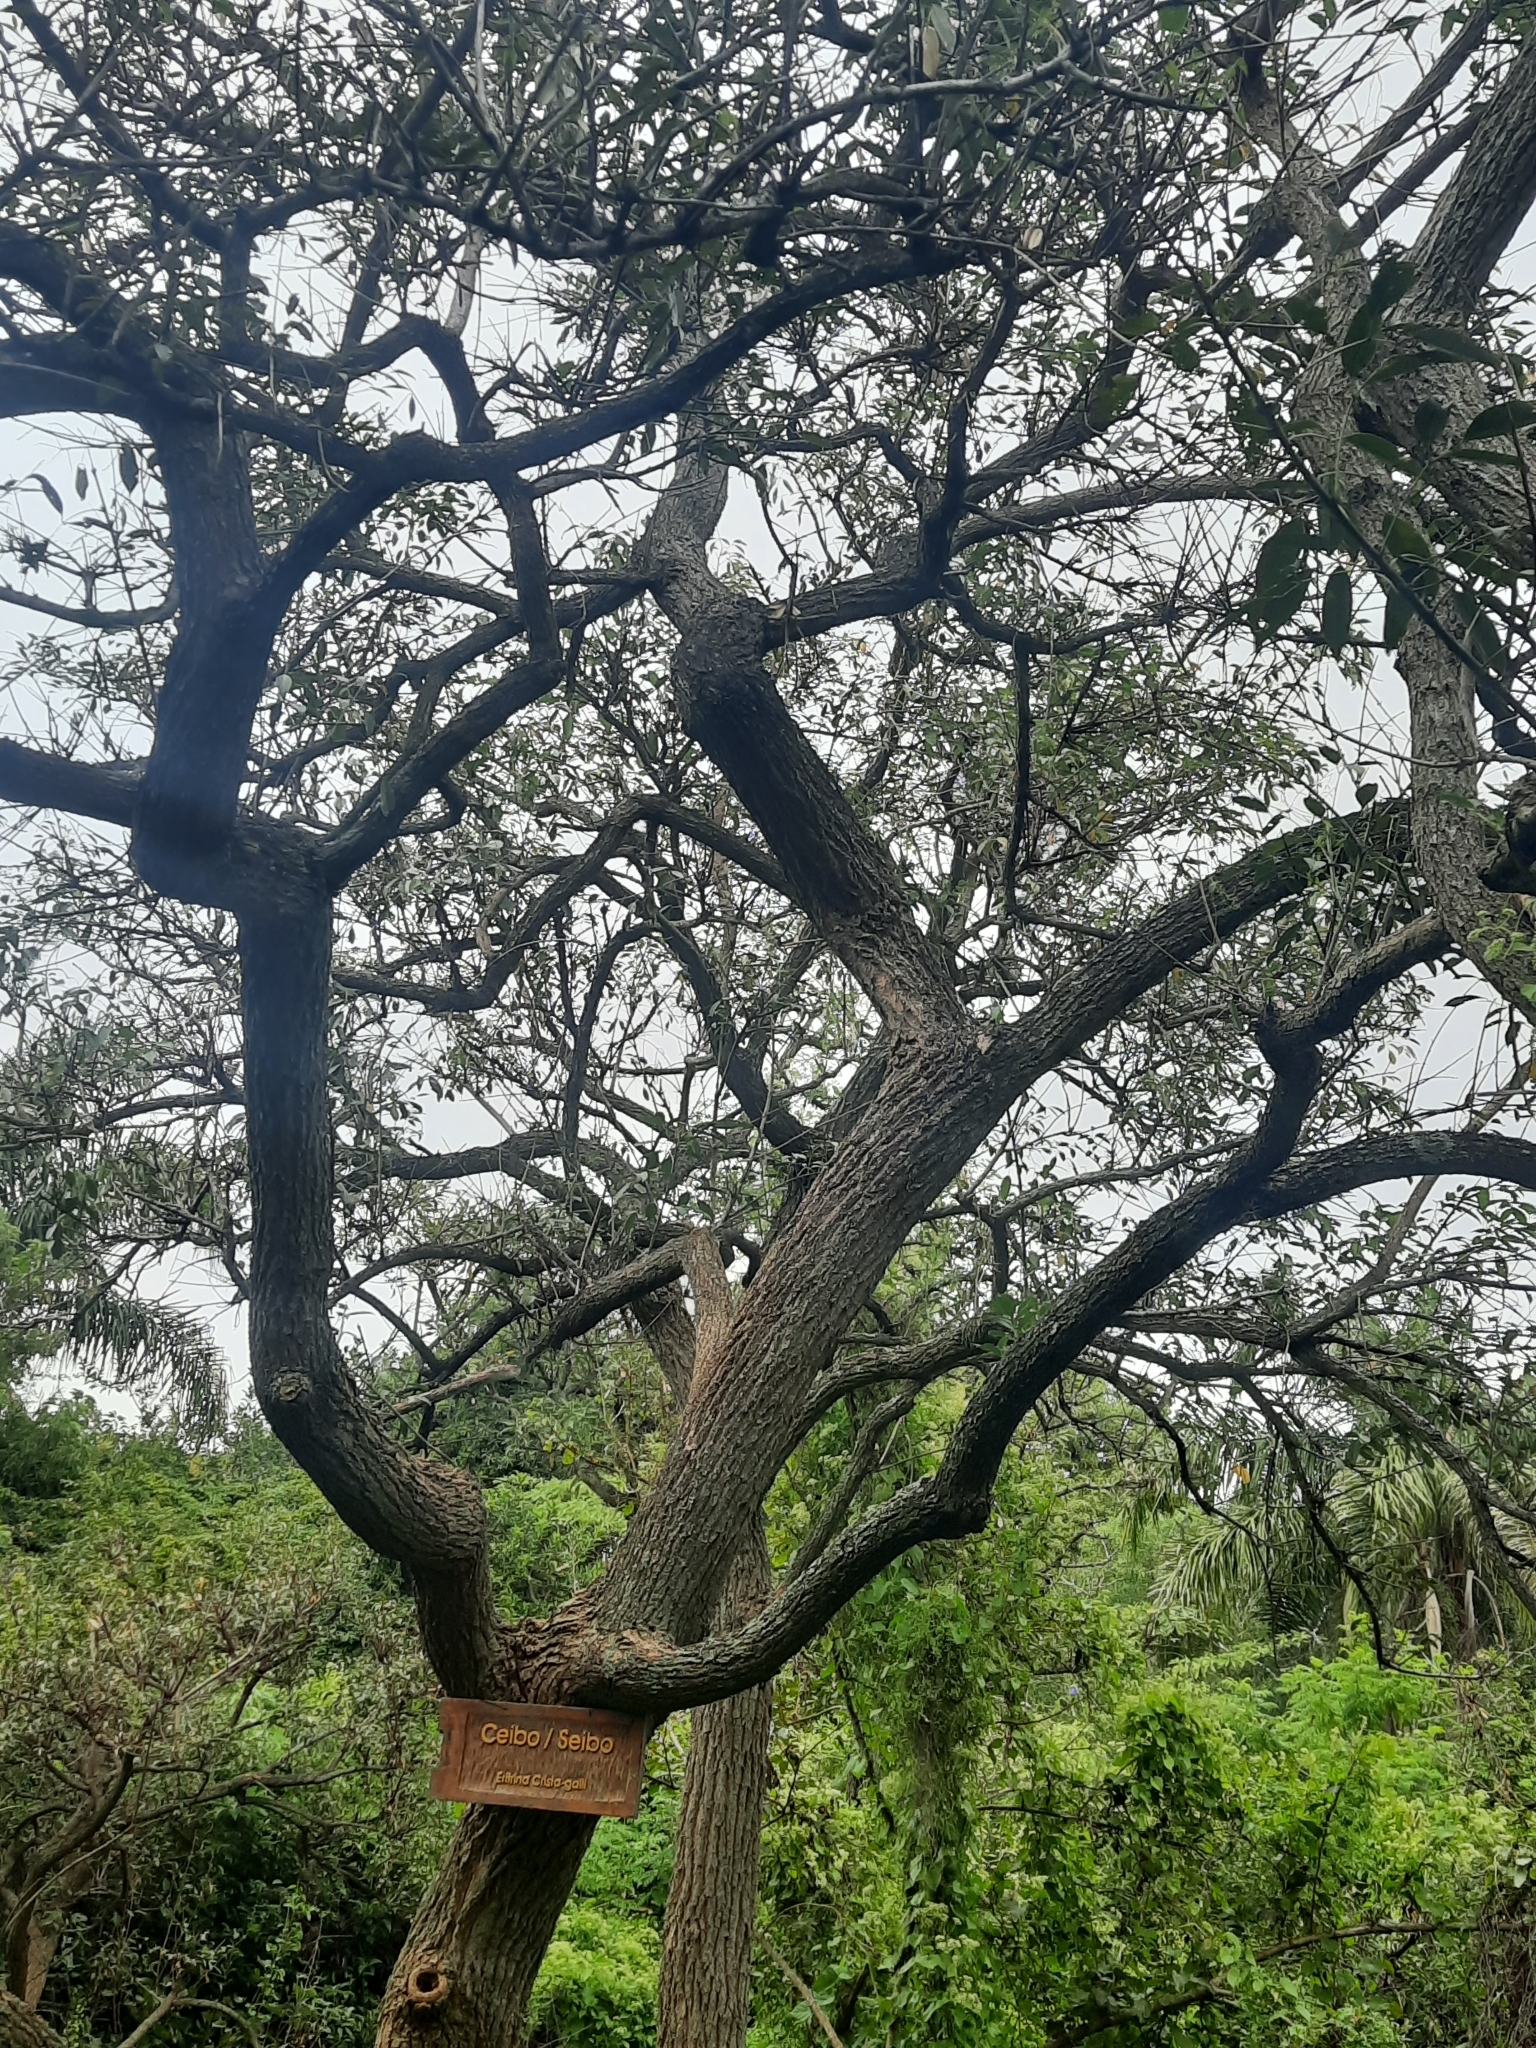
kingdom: Plantae
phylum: Tracheophyta
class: Magnoliopsida
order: Fabales
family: Fabaceae
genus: Erythrina
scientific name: Erythrina crista-galli
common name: Cockspur coral tree
